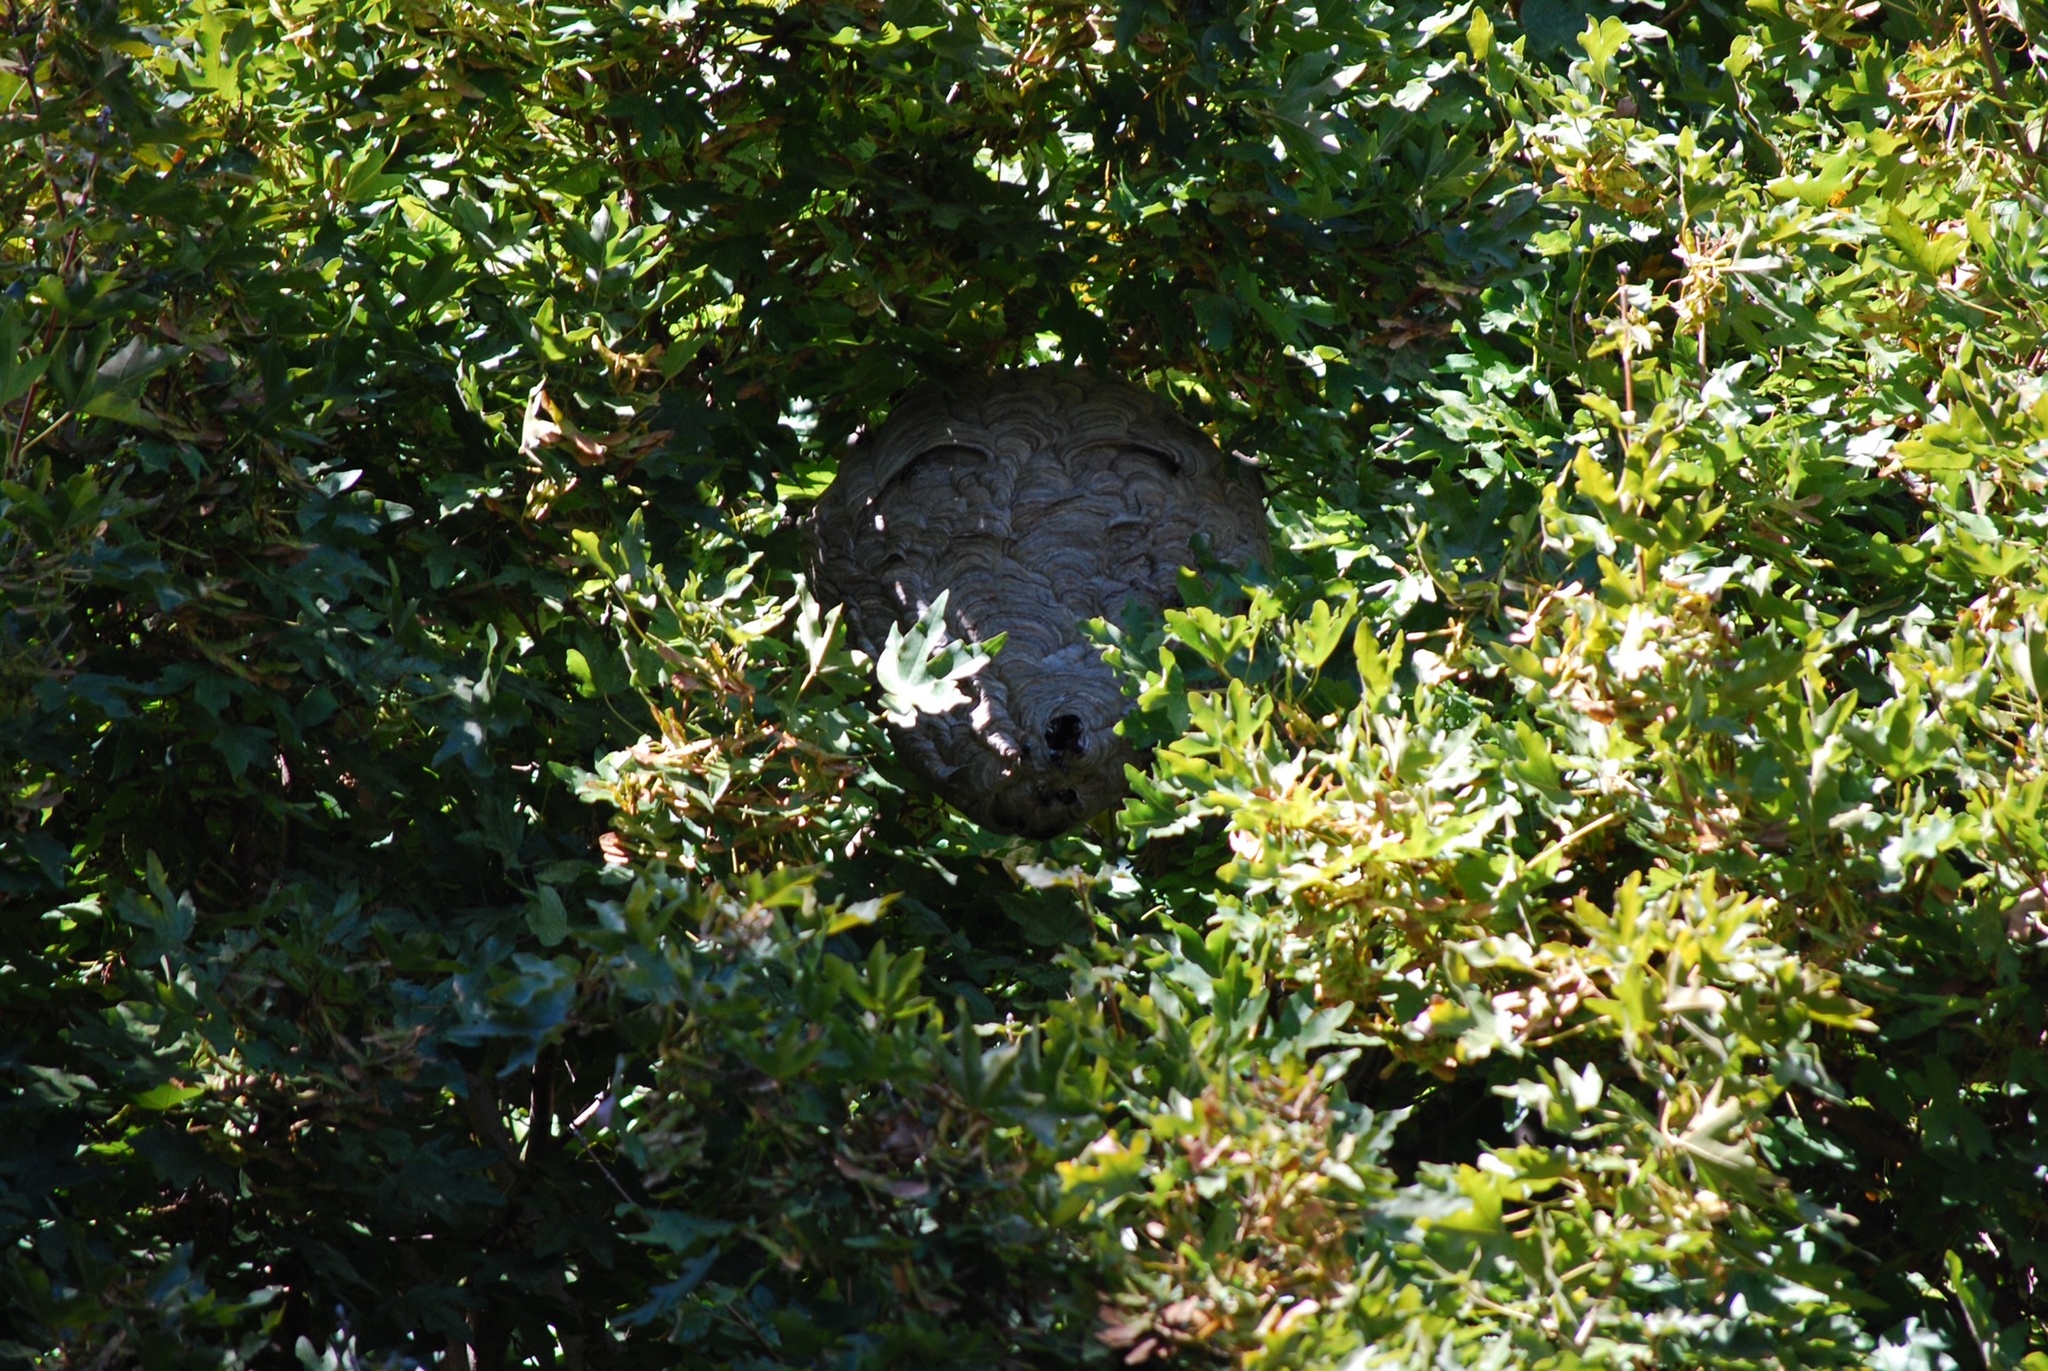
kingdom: Animalia
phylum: Arthropoda
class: Insecta
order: Hymenoptera
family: Vespidae
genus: Dolichovespula
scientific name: Dolichovespula maculata
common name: Bald-faced hornet
